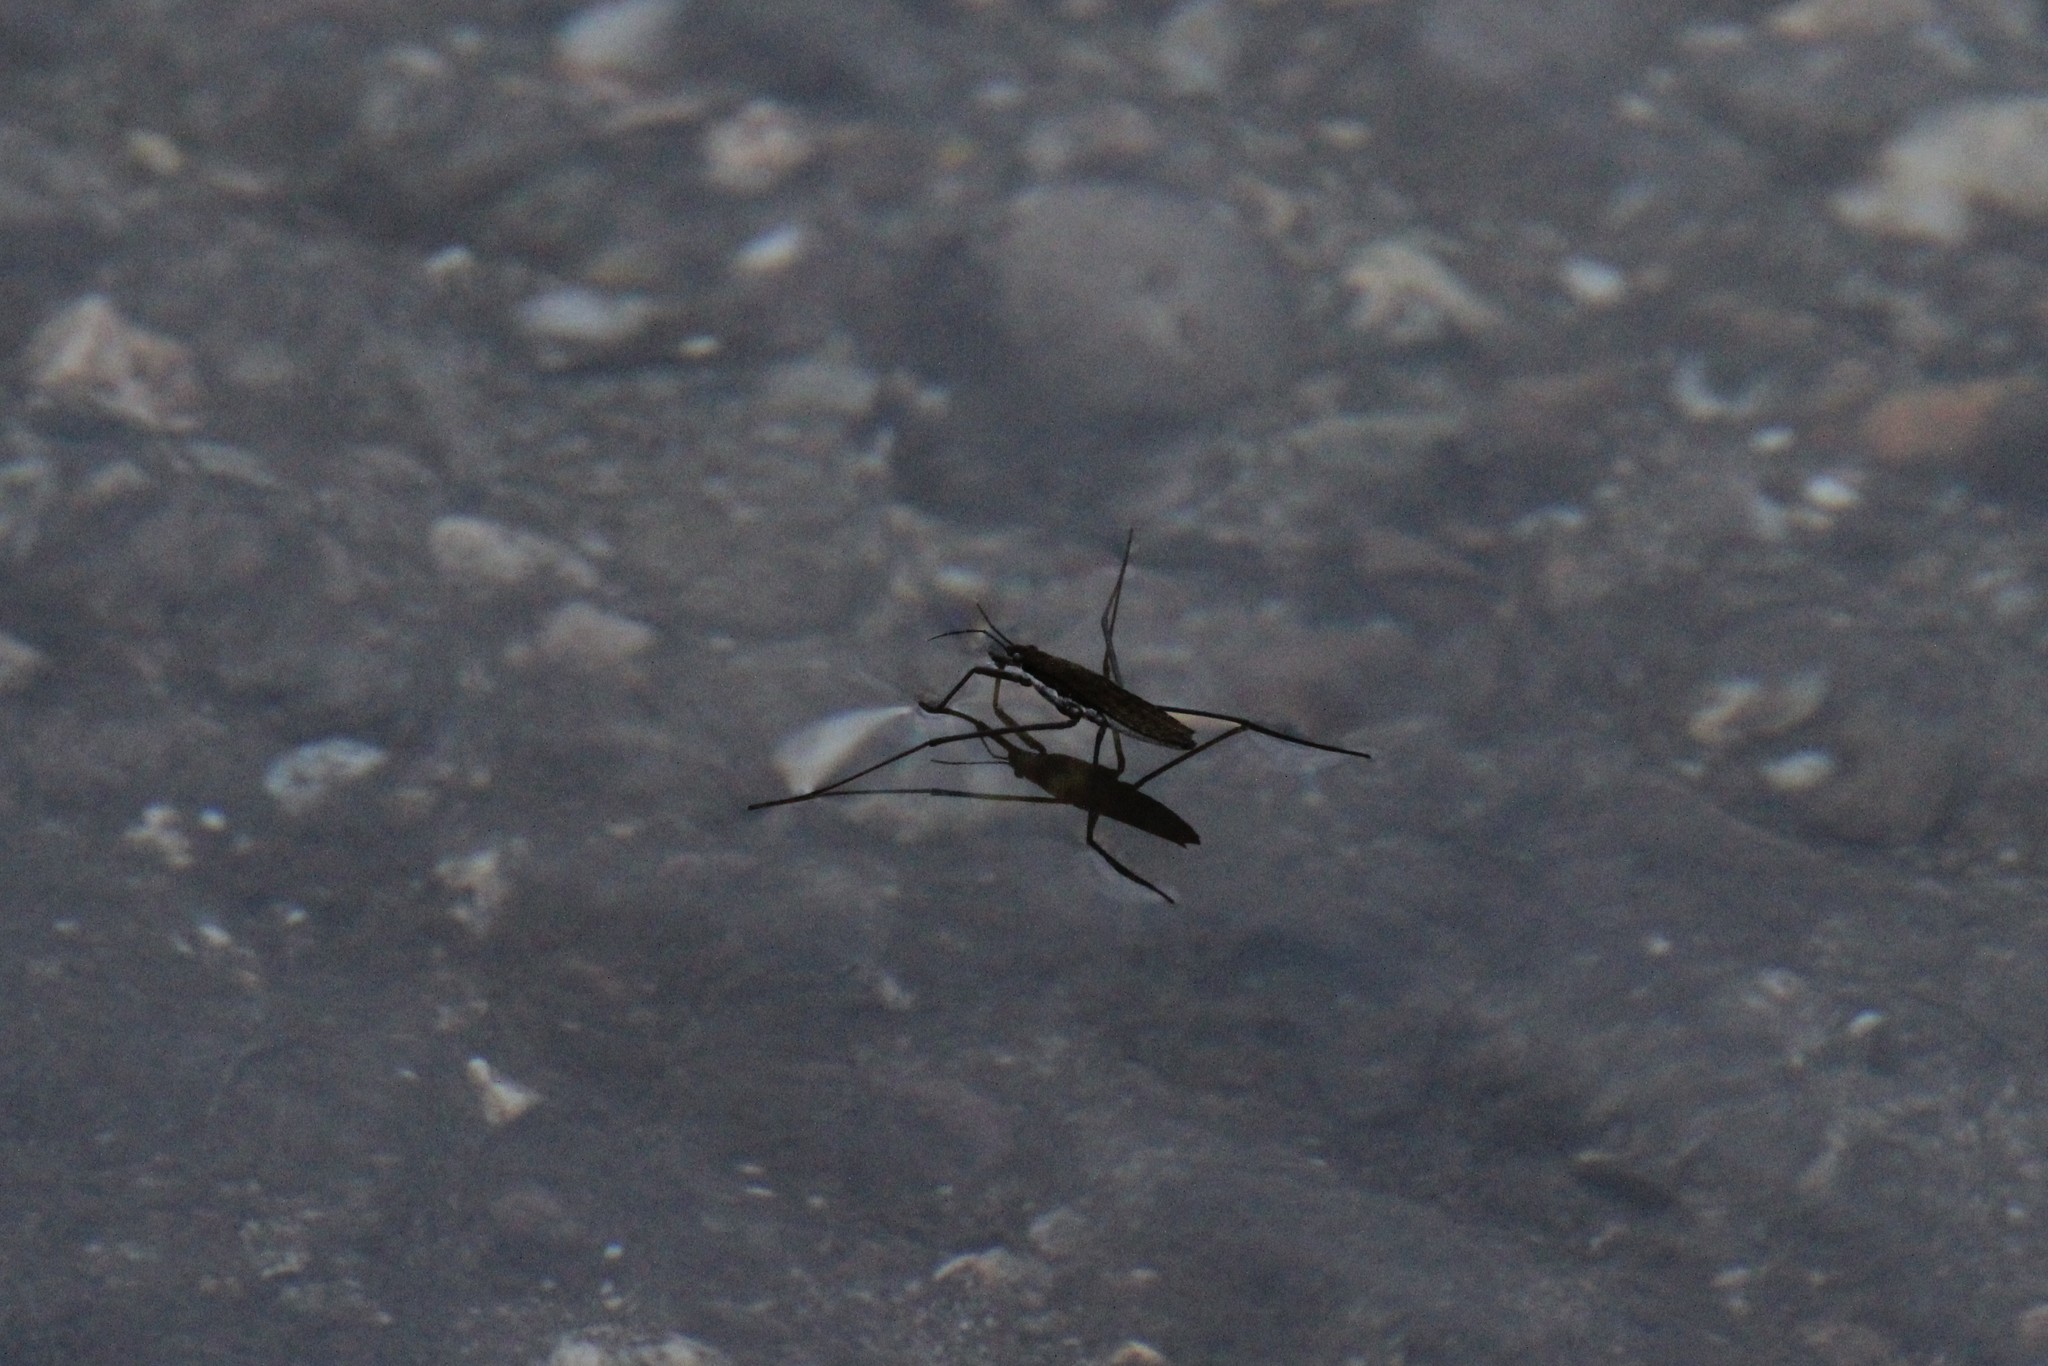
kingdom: Animalia
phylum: Arthropoda
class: Insecta
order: Hemiptera
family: Gerridae
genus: Aquarius
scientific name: Aquarius remigis
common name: Common water strider
